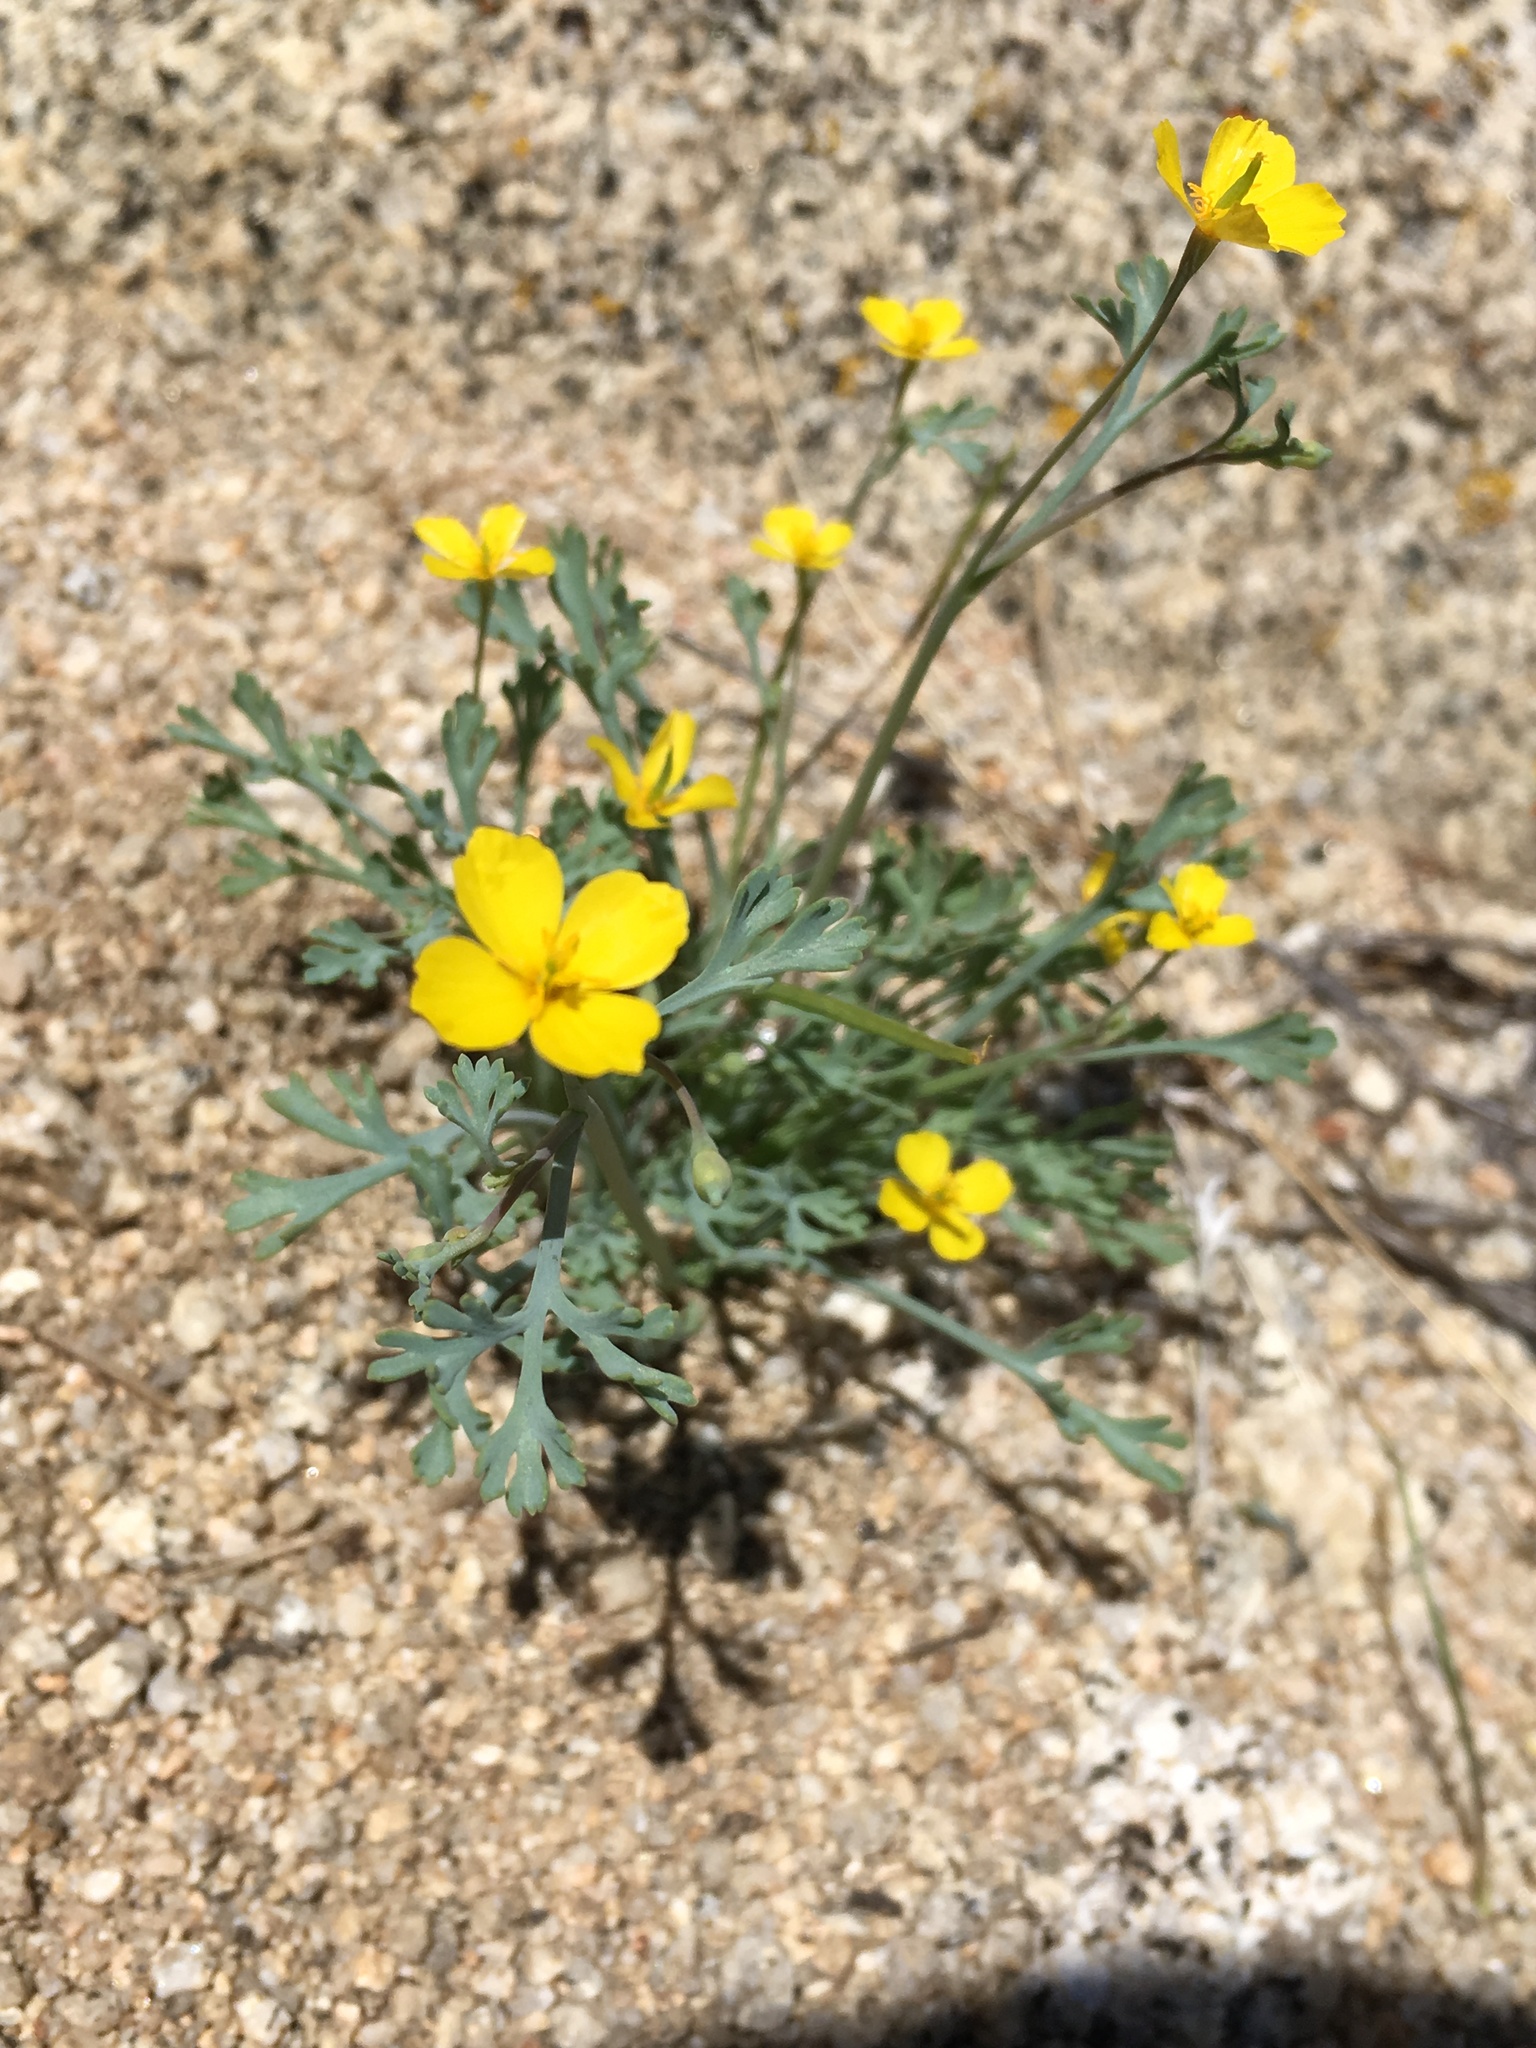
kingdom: Plantae
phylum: Tracheophyta
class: Magnoliopsida
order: Ranunculales
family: Papaveraceae
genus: Eschscholzia
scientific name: Eschscholzia minutiflora
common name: Small-flower california-poppy
